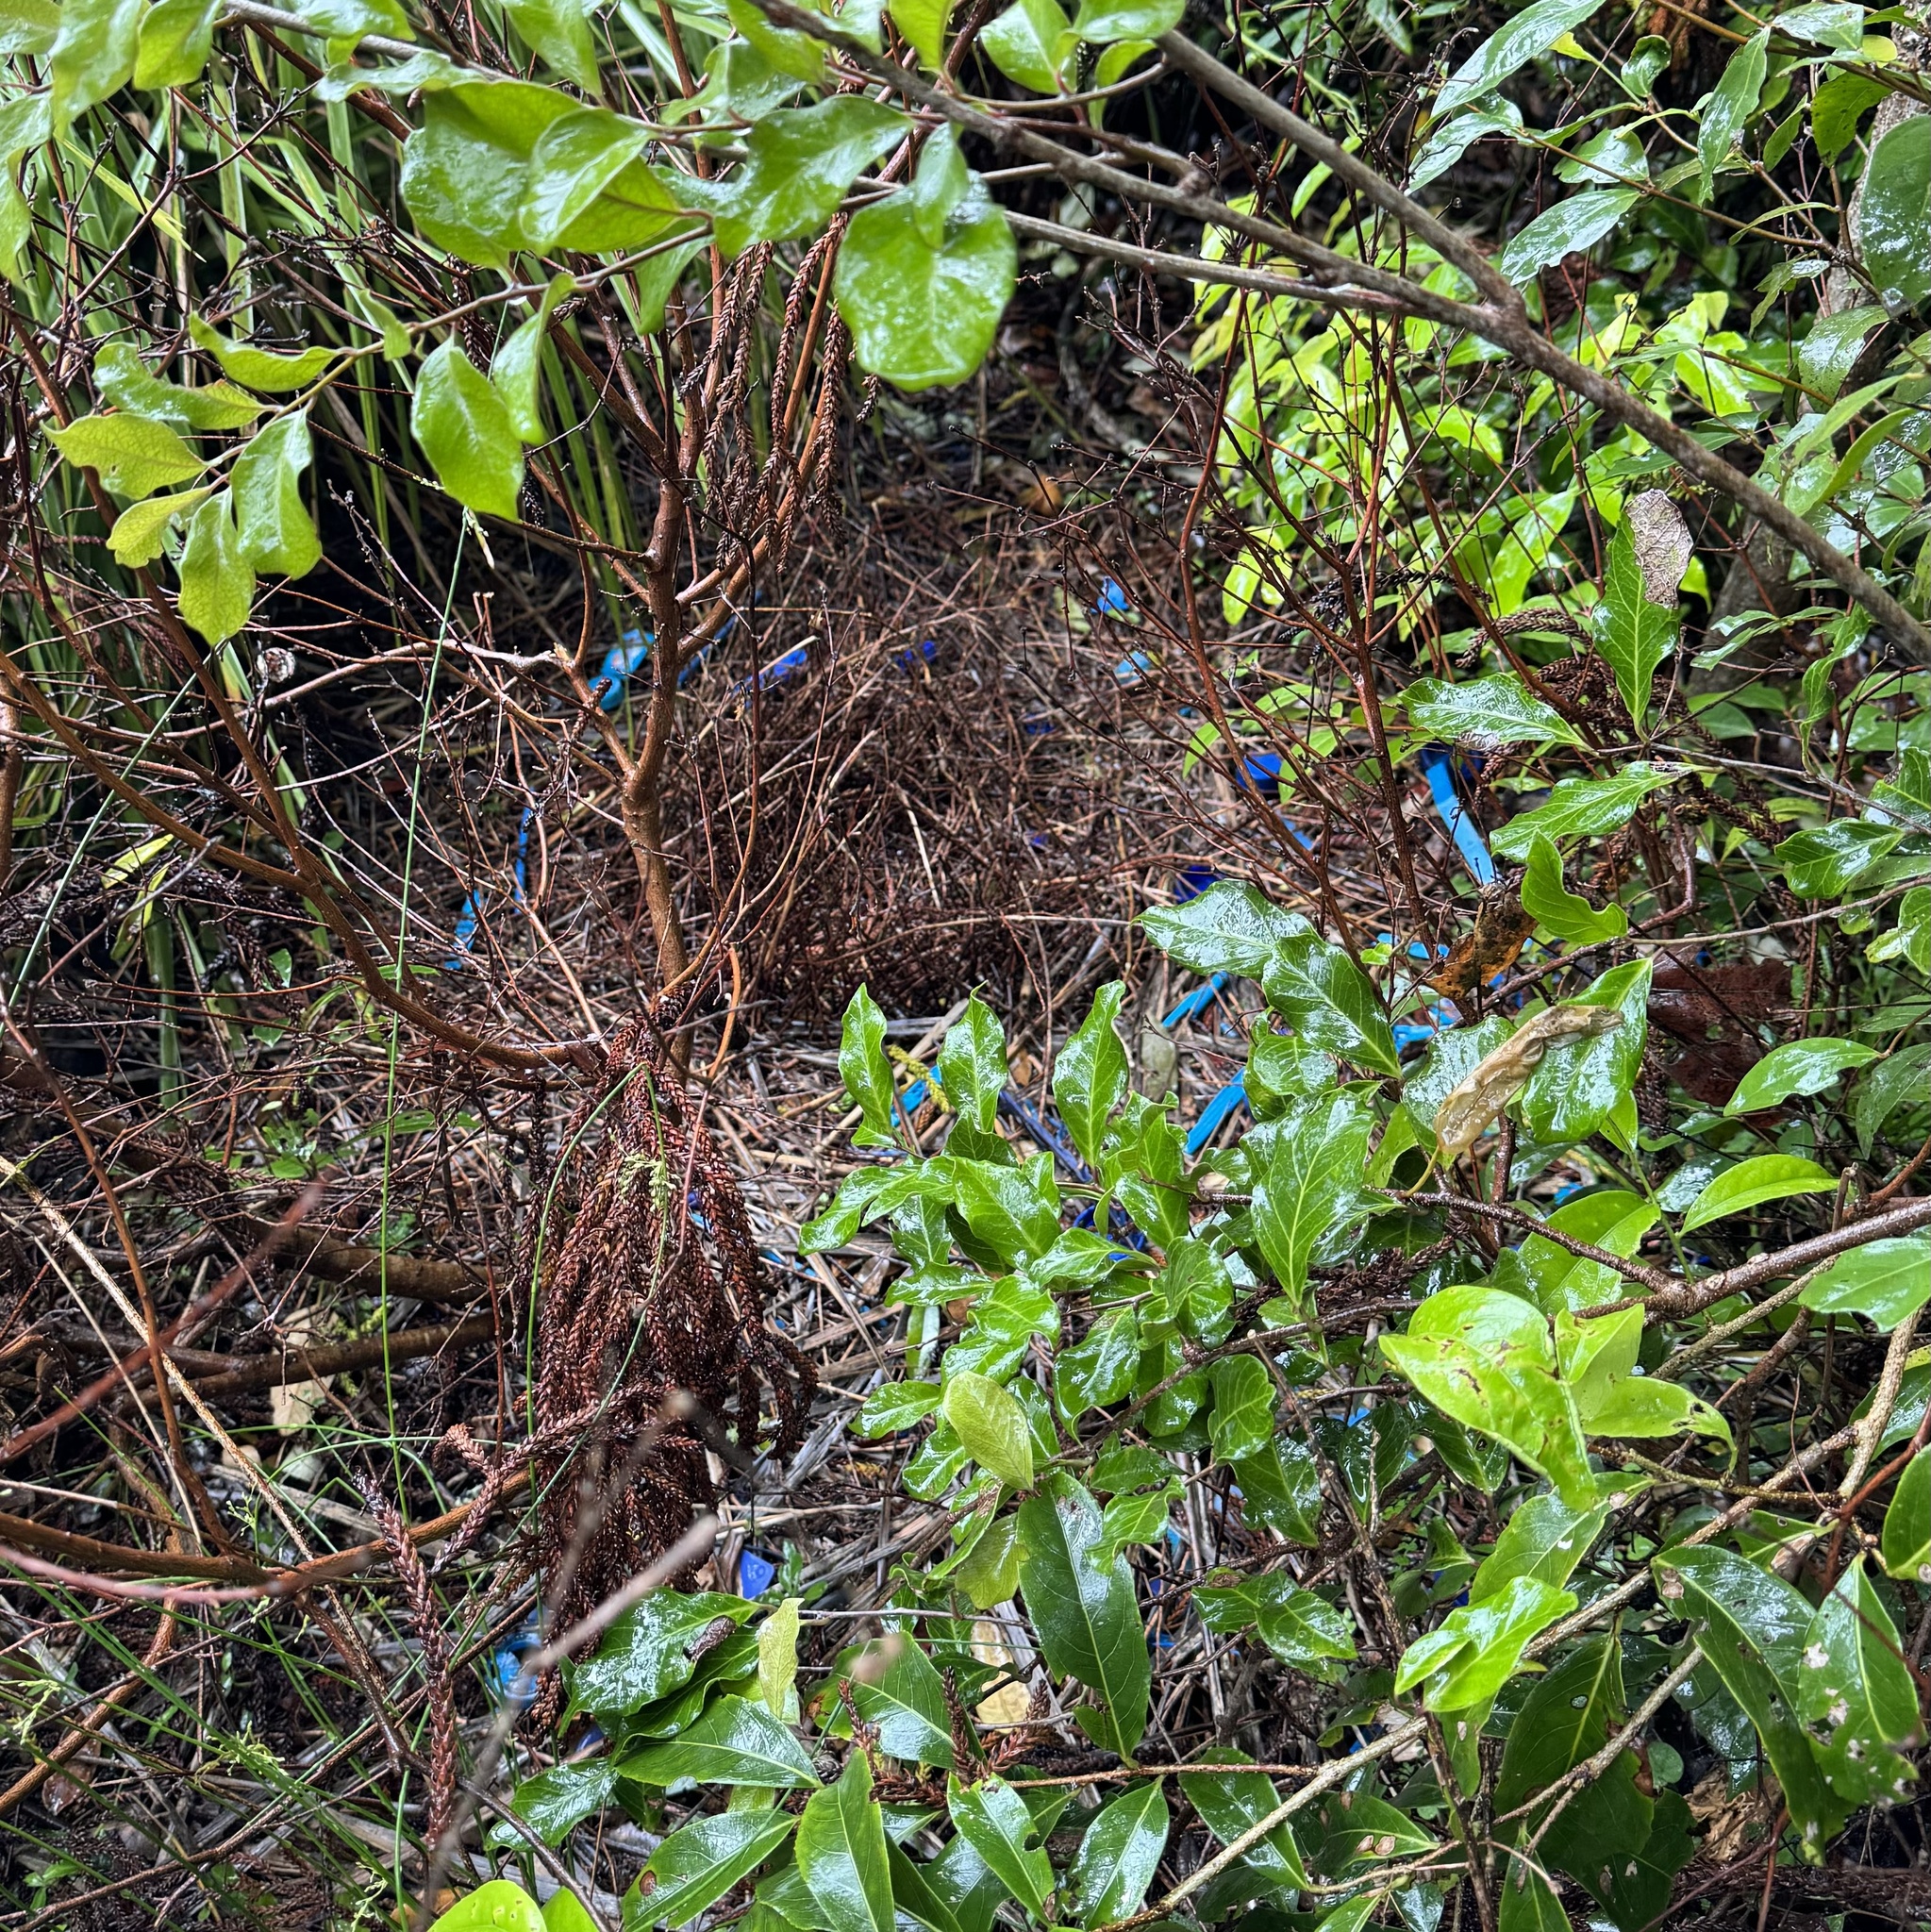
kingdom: Animalia
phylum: Chordata
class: Aves
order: Passeriformes
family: Ptilonorhynchidae
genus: Ptilonorhynchus
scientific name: Ptilonorhynchus violaceus
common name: Satin bowerbird
